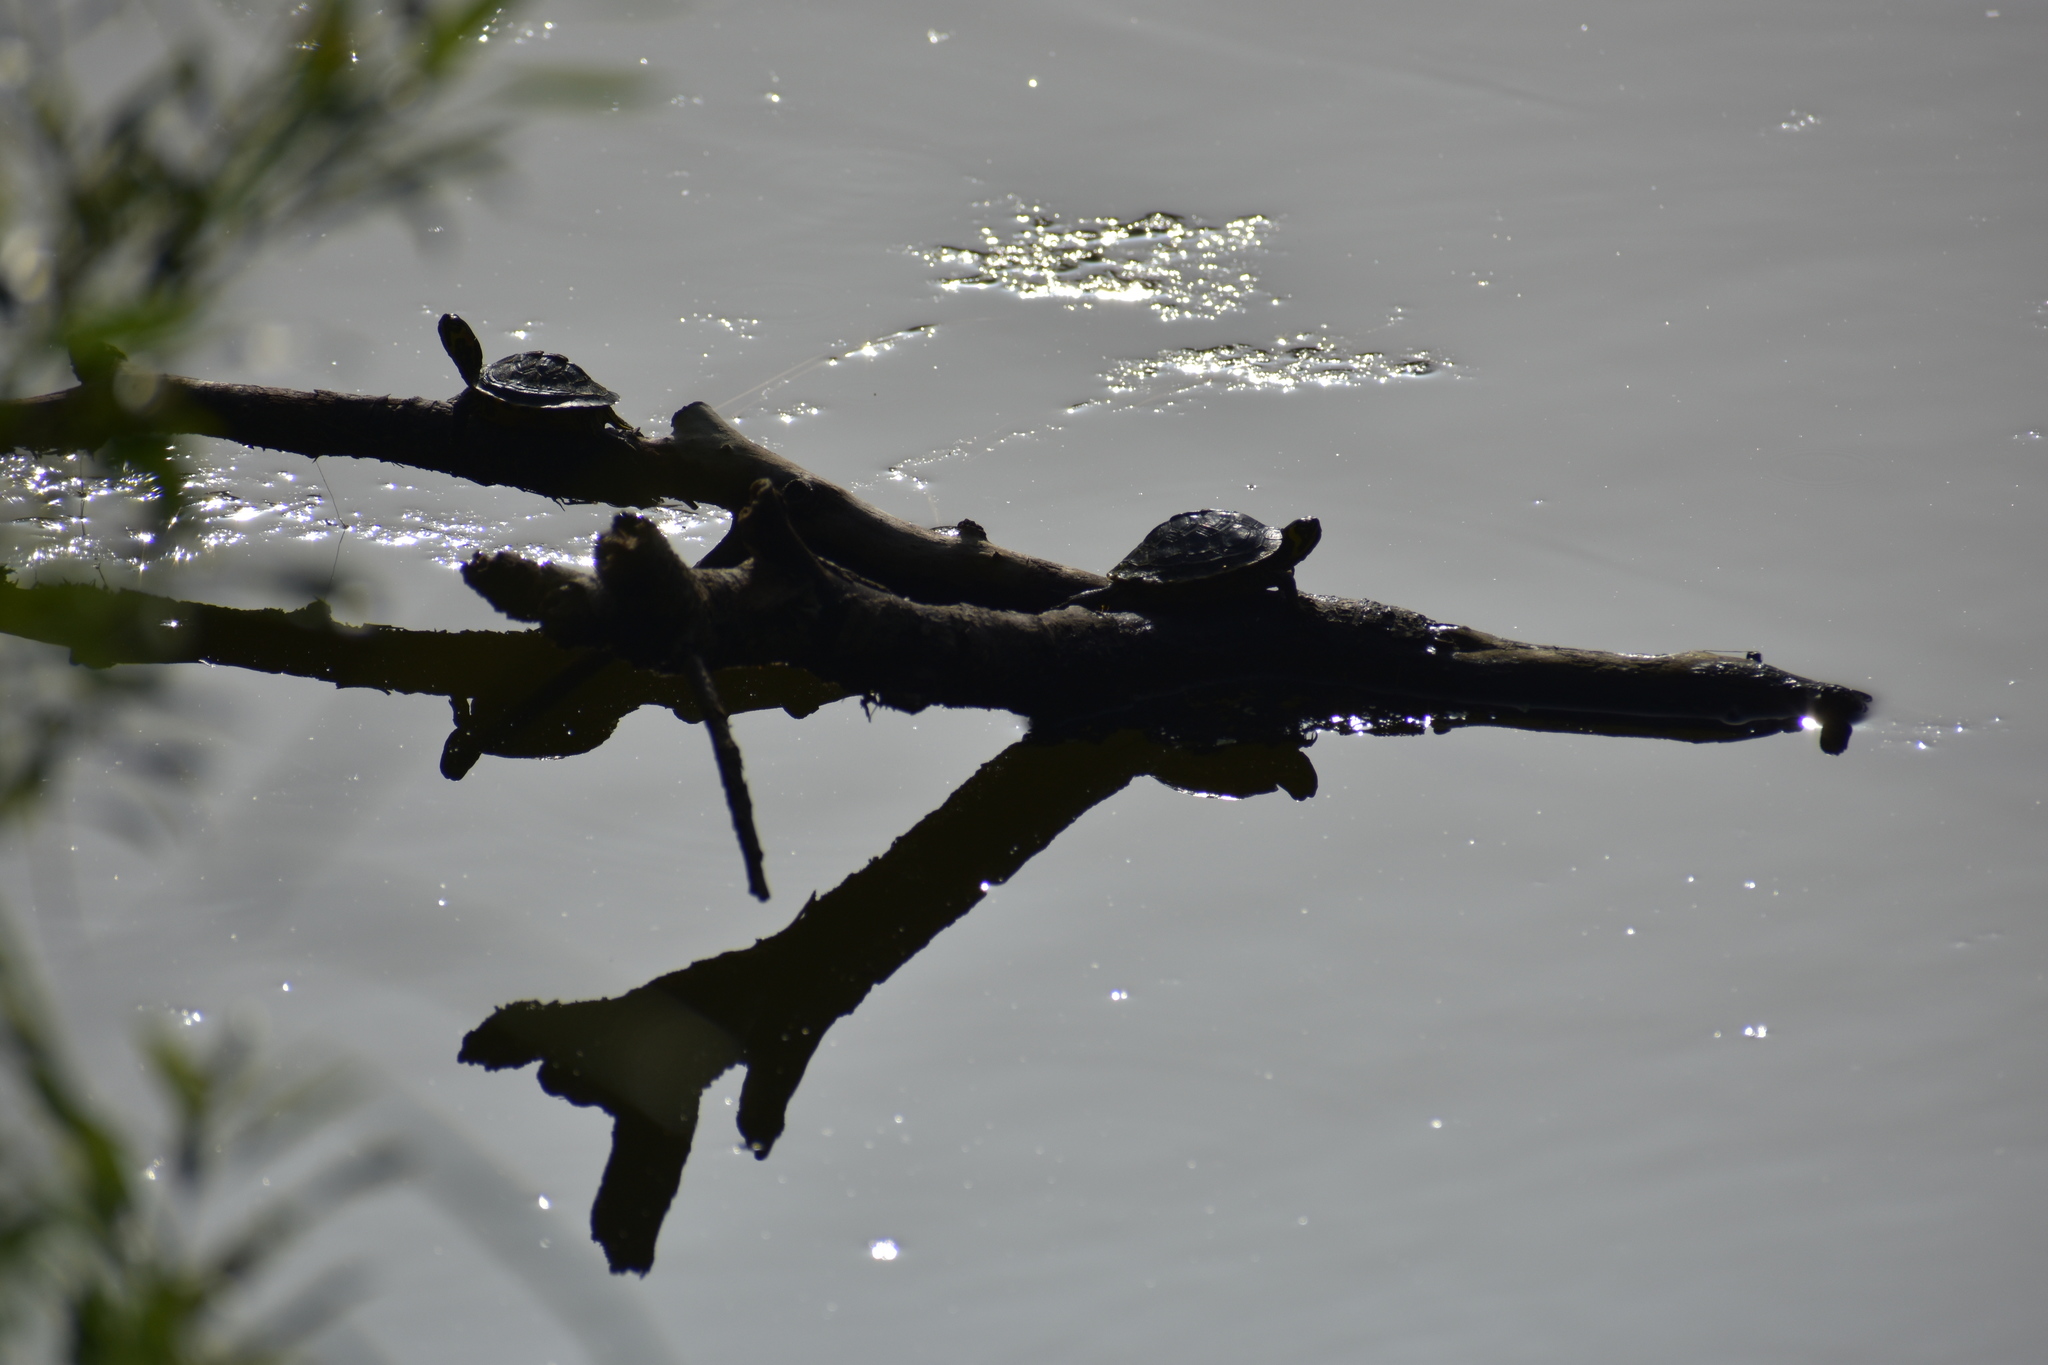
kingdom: Animalia
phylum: Chordata
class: Testudines
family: Emydidae
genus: Trachemys
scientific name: Trachemys scripta
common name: Slider
